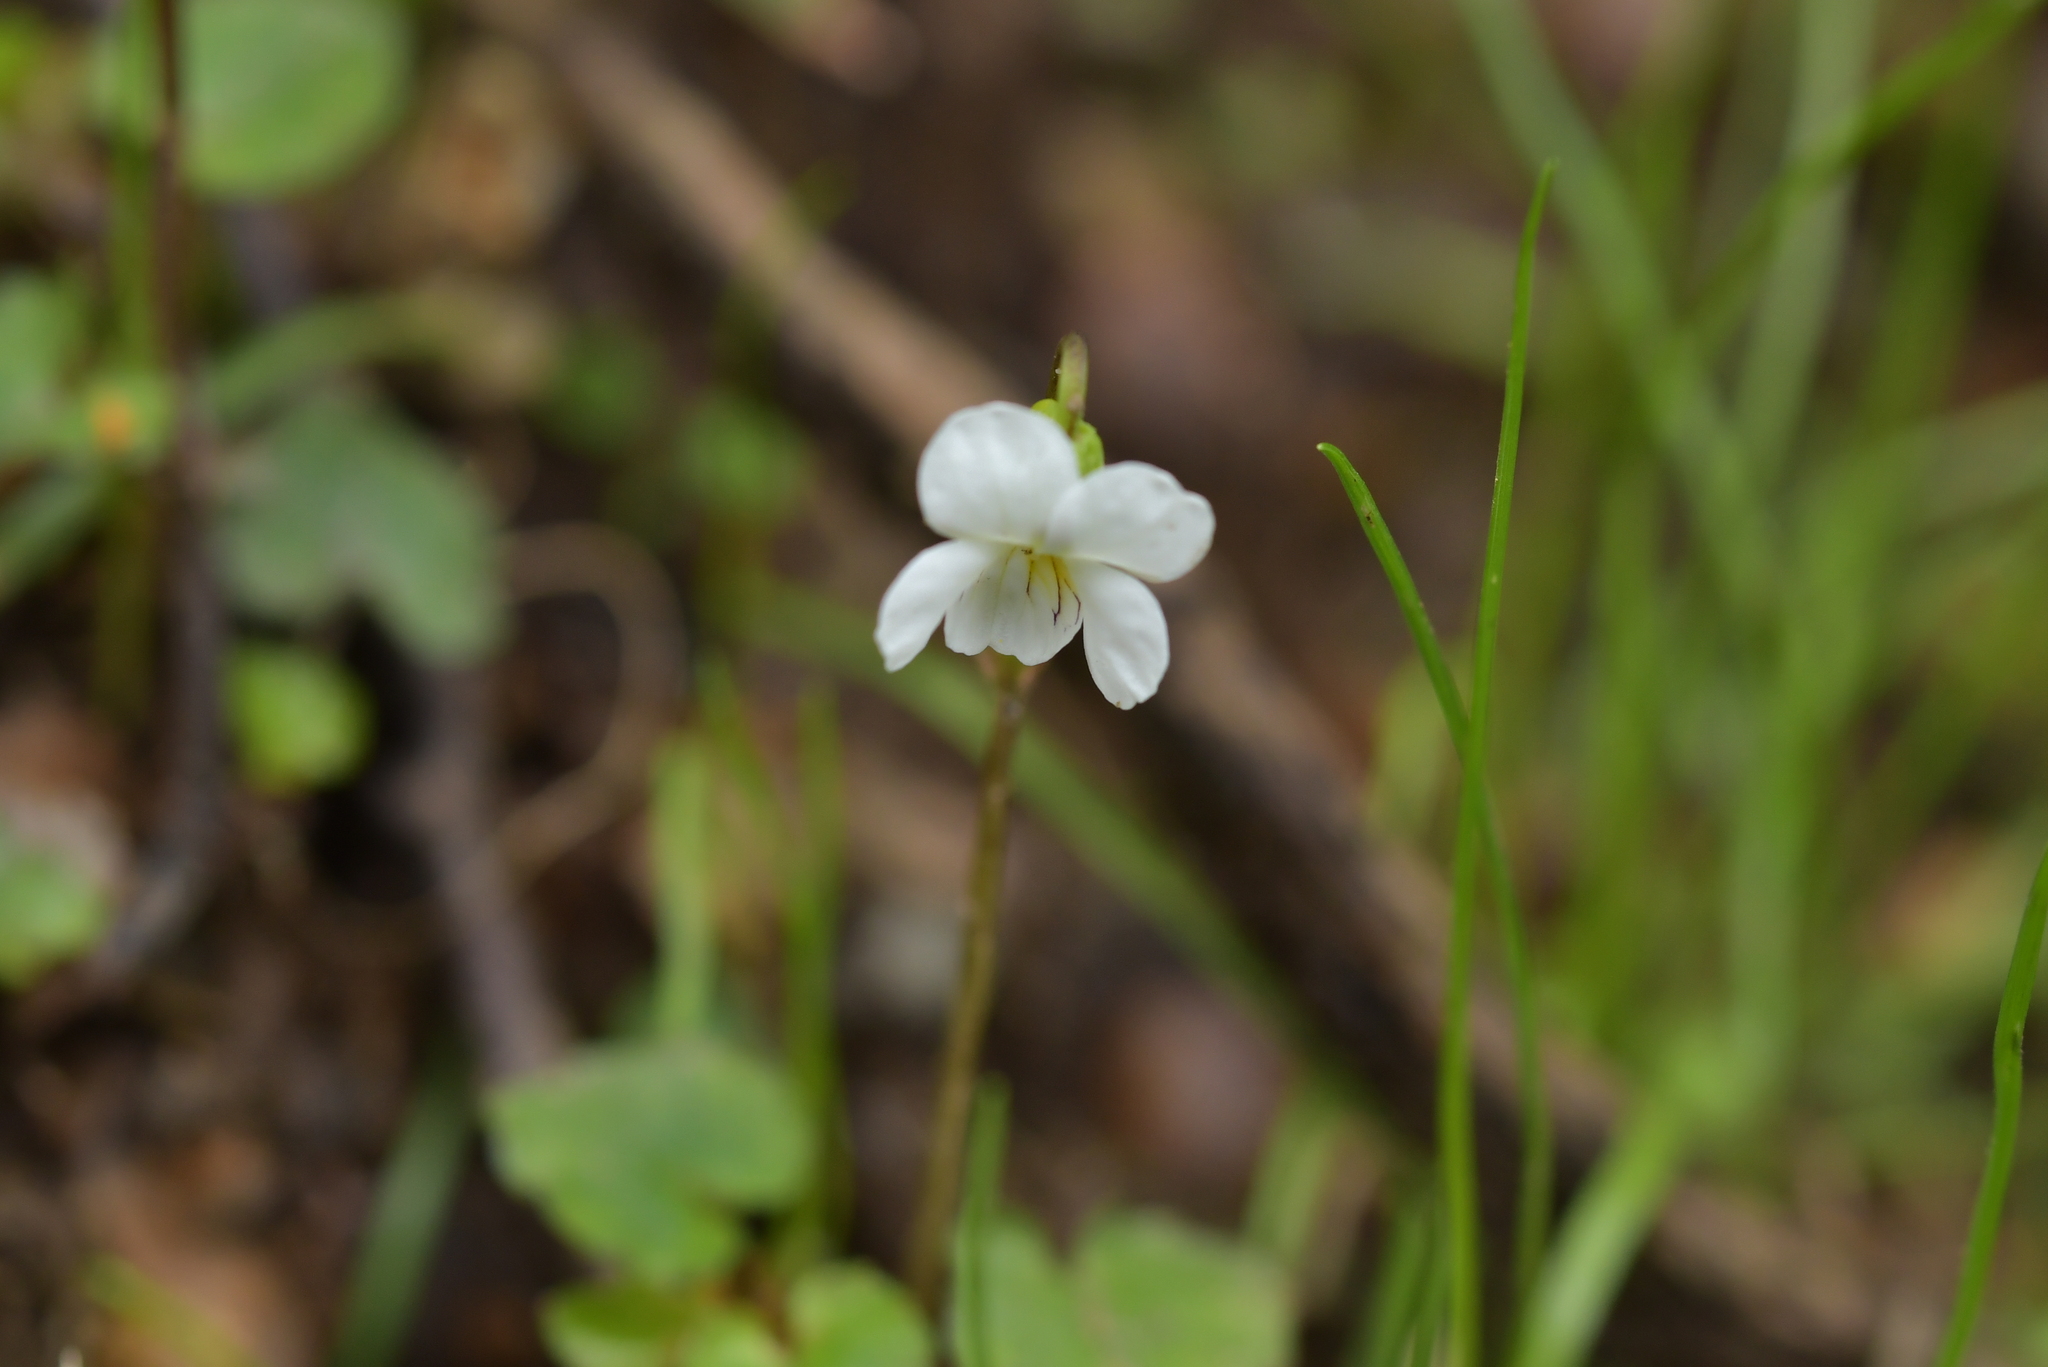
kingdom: Plantae
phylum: Tracheophyta
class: Magnoliopsida
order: Malpighiales
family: Violaceae
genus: Viola
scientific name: Viola filicaulis
